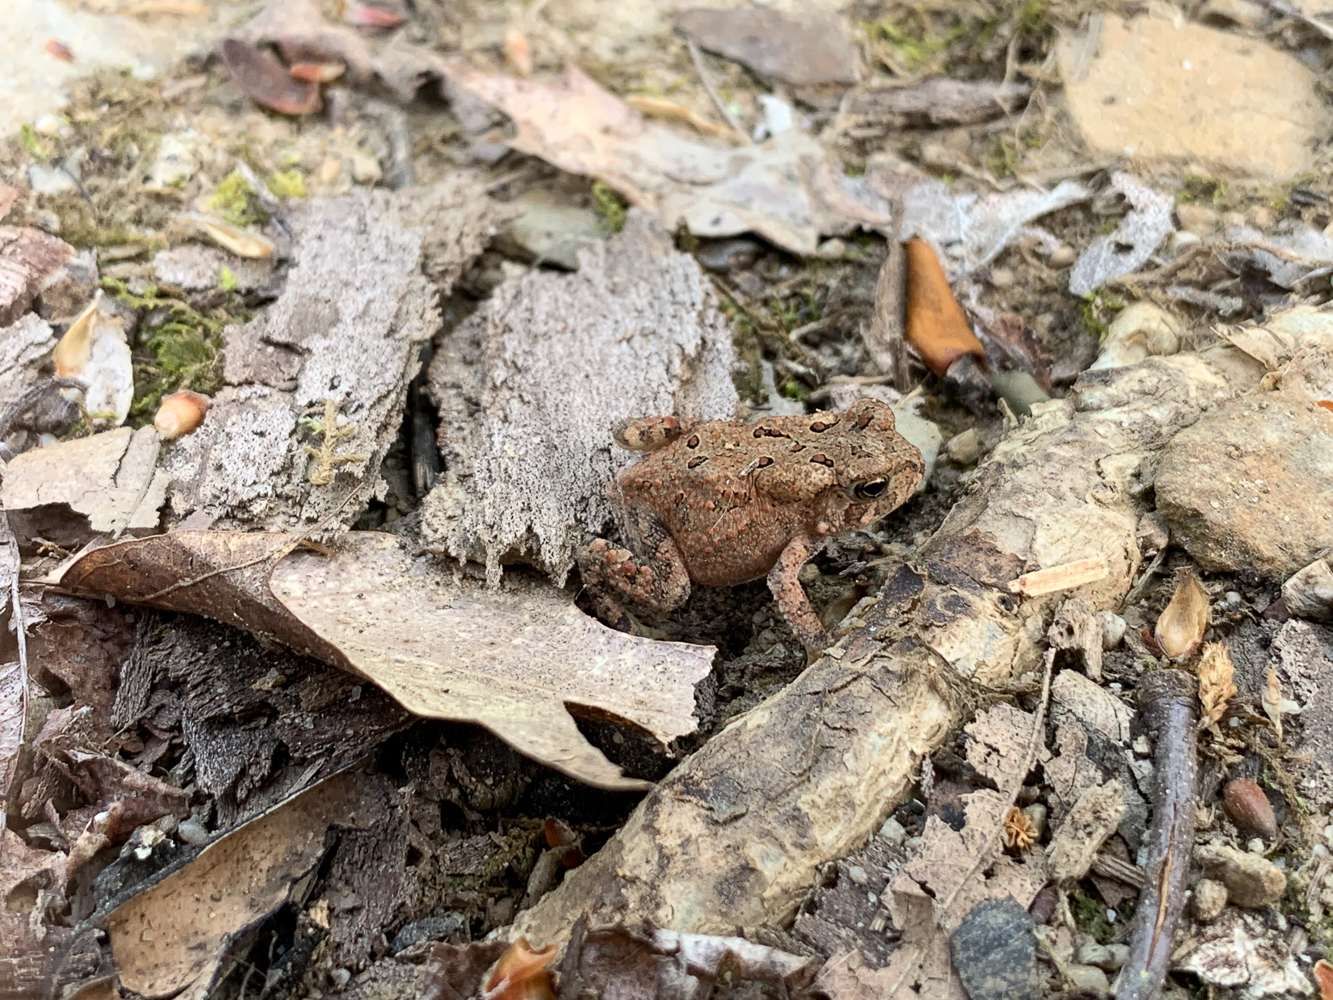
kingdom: Animalia
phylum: Chordata
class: Amphibia
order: Anura
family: Bufonidae
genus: Anaxyrus
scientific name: Anaxyrus americanus
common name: American toad
